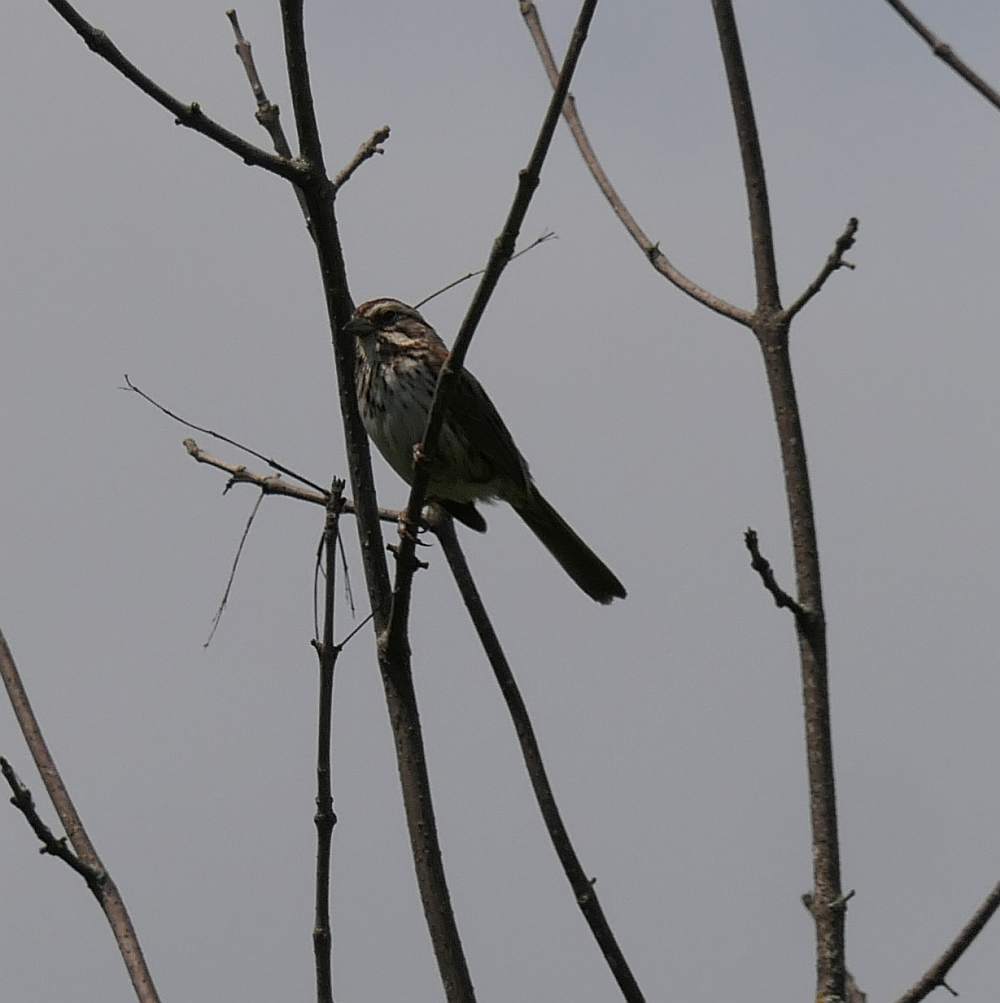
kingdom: Animalia
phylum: Chordata
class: Aves
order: Passeriformes
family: Passerellidae
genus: Melospiza
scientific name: Melospiza melodia
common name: Song sparrow
